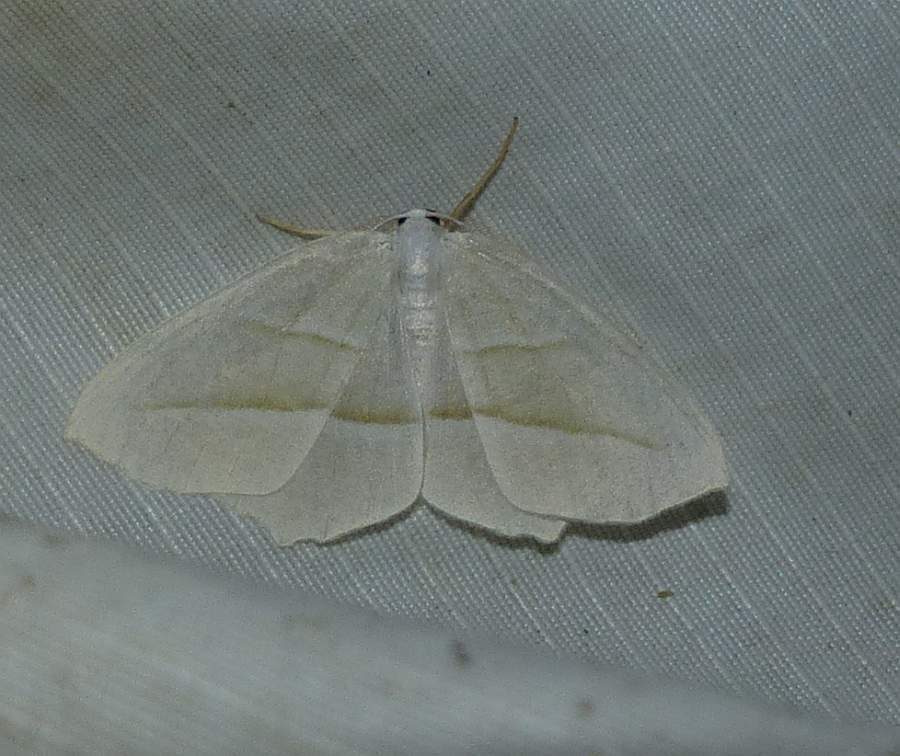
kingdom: Animalia
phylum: Arthropoda
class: Insecta
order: Lepidoptera
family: Geometridae
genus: Campaea
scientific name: Campaea perlata
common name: Fringed looper
